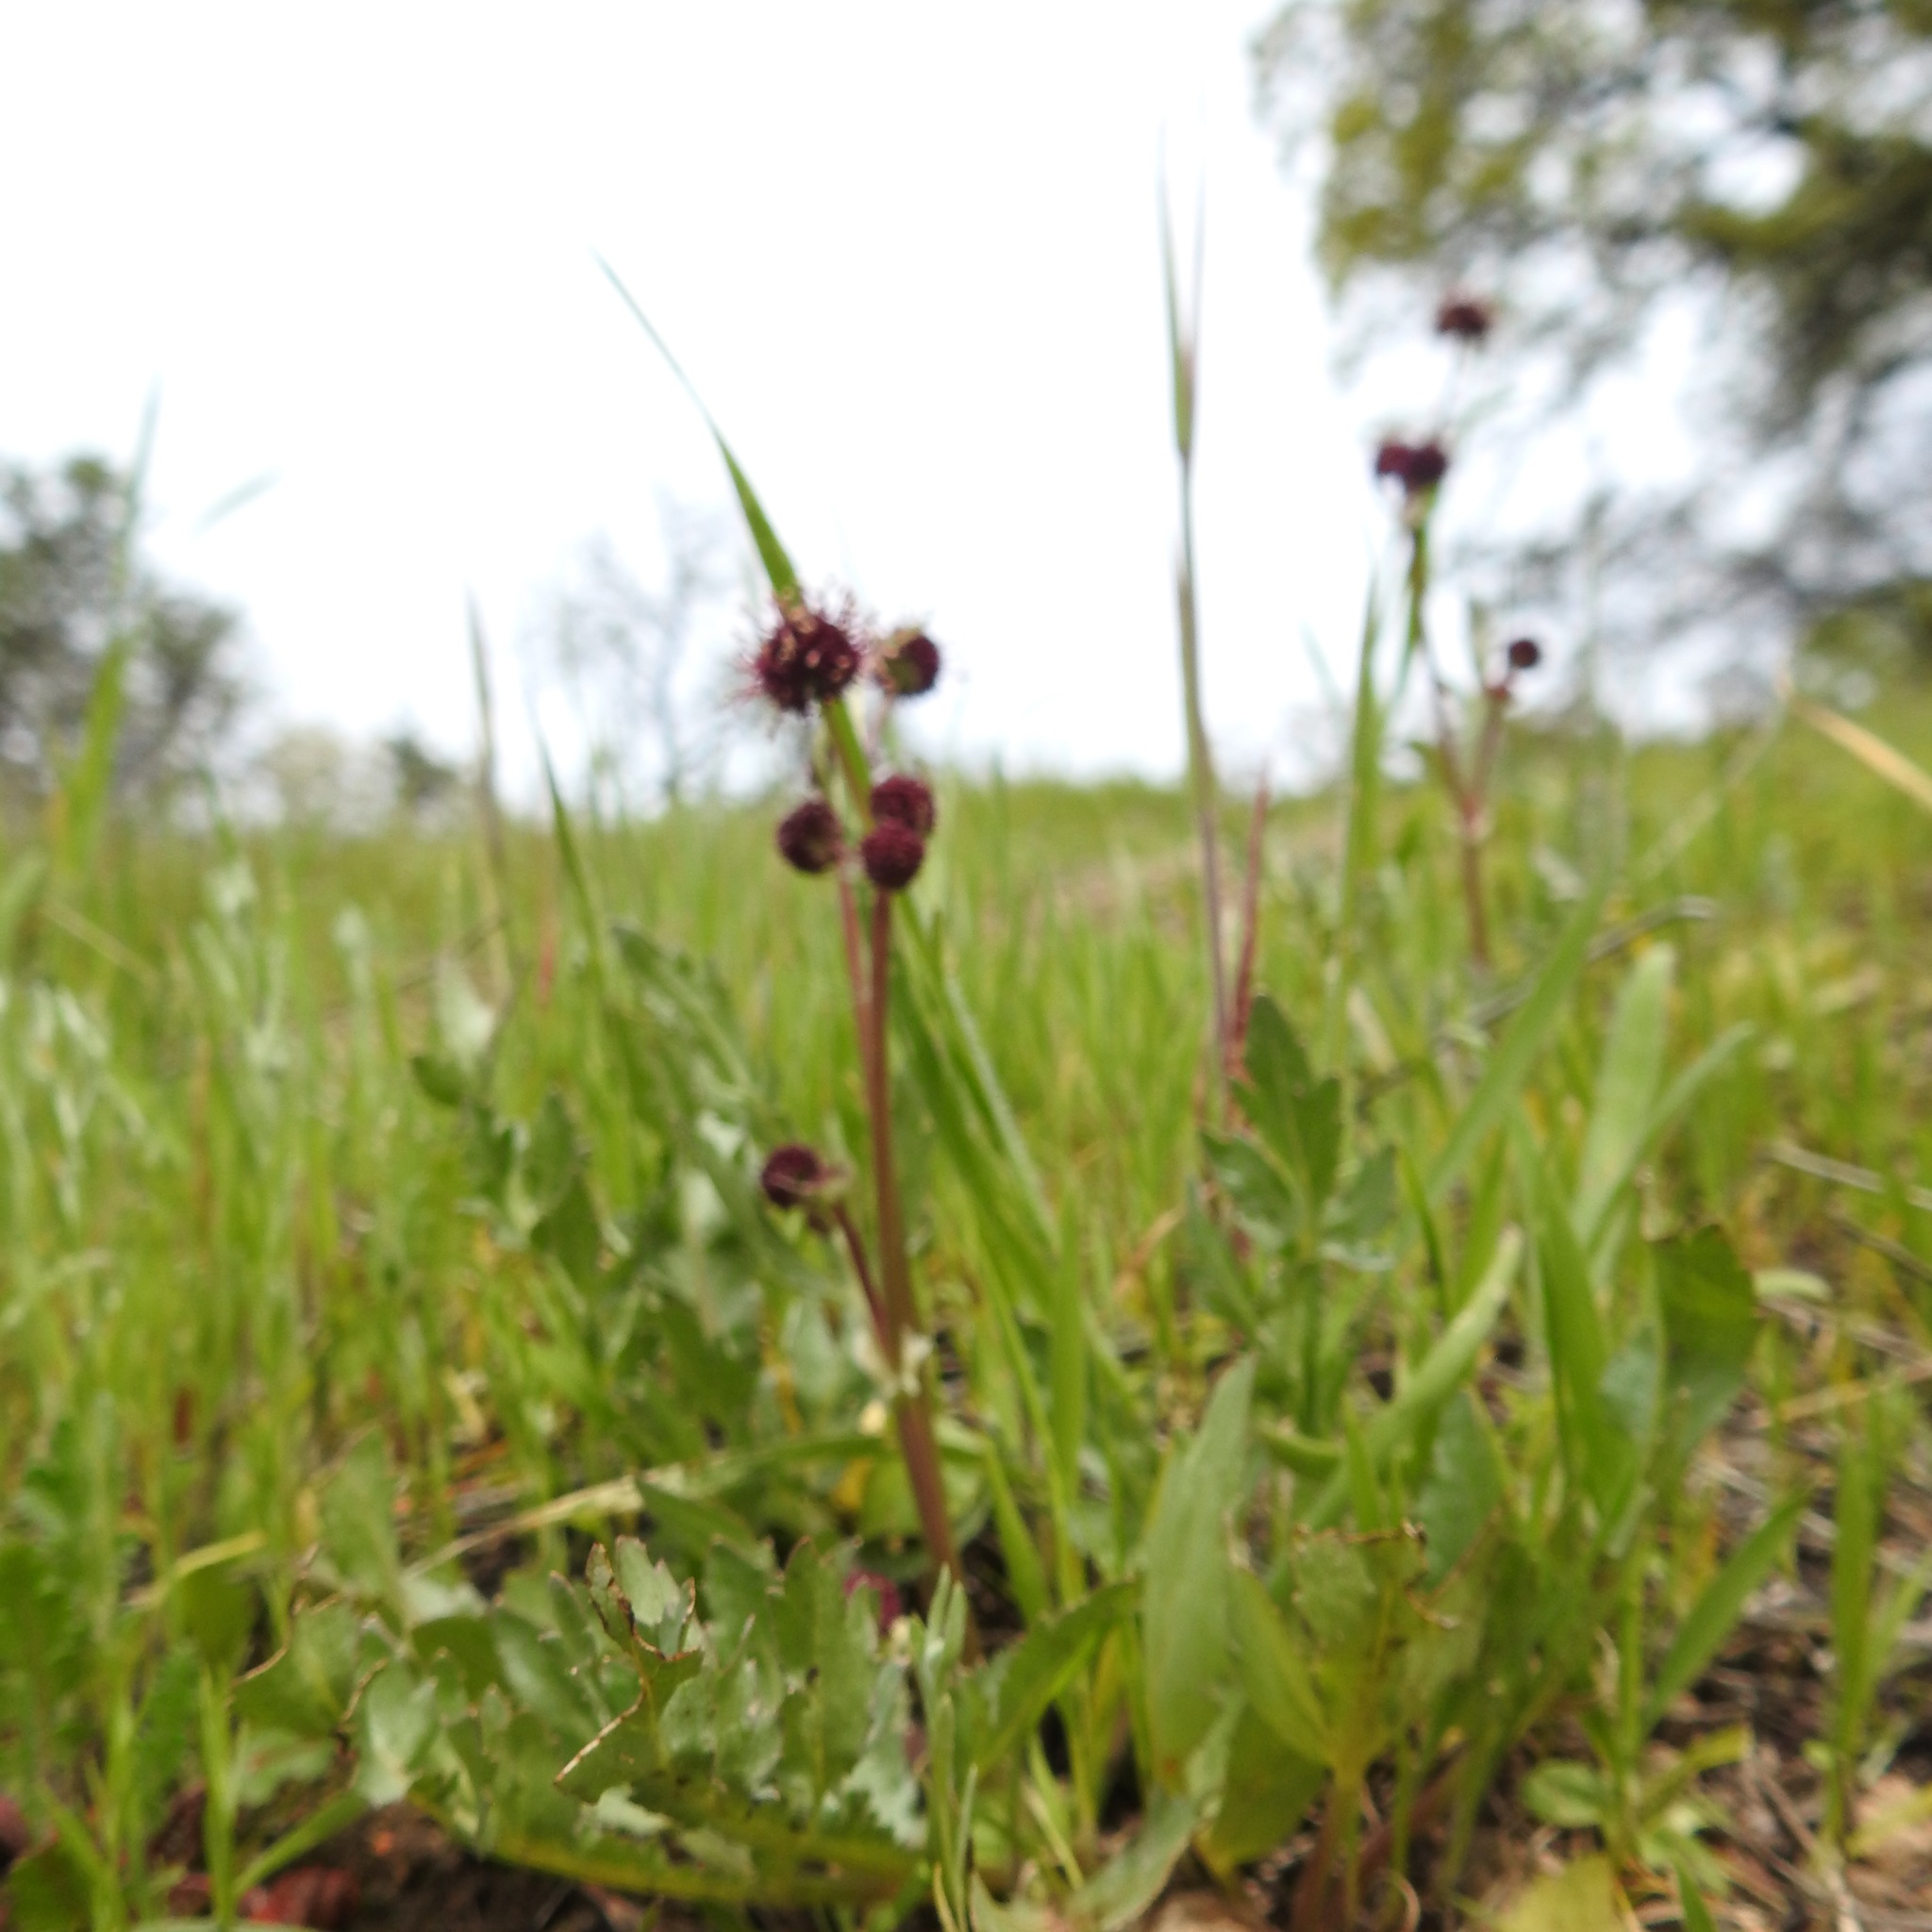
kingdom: Plantae
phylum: Tracheophyta
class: Magnoliopsida
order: Apiales
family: Apiaceae
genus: Sanicula
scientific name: Sanicula bipinnatifida
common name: Shoe-buttons
